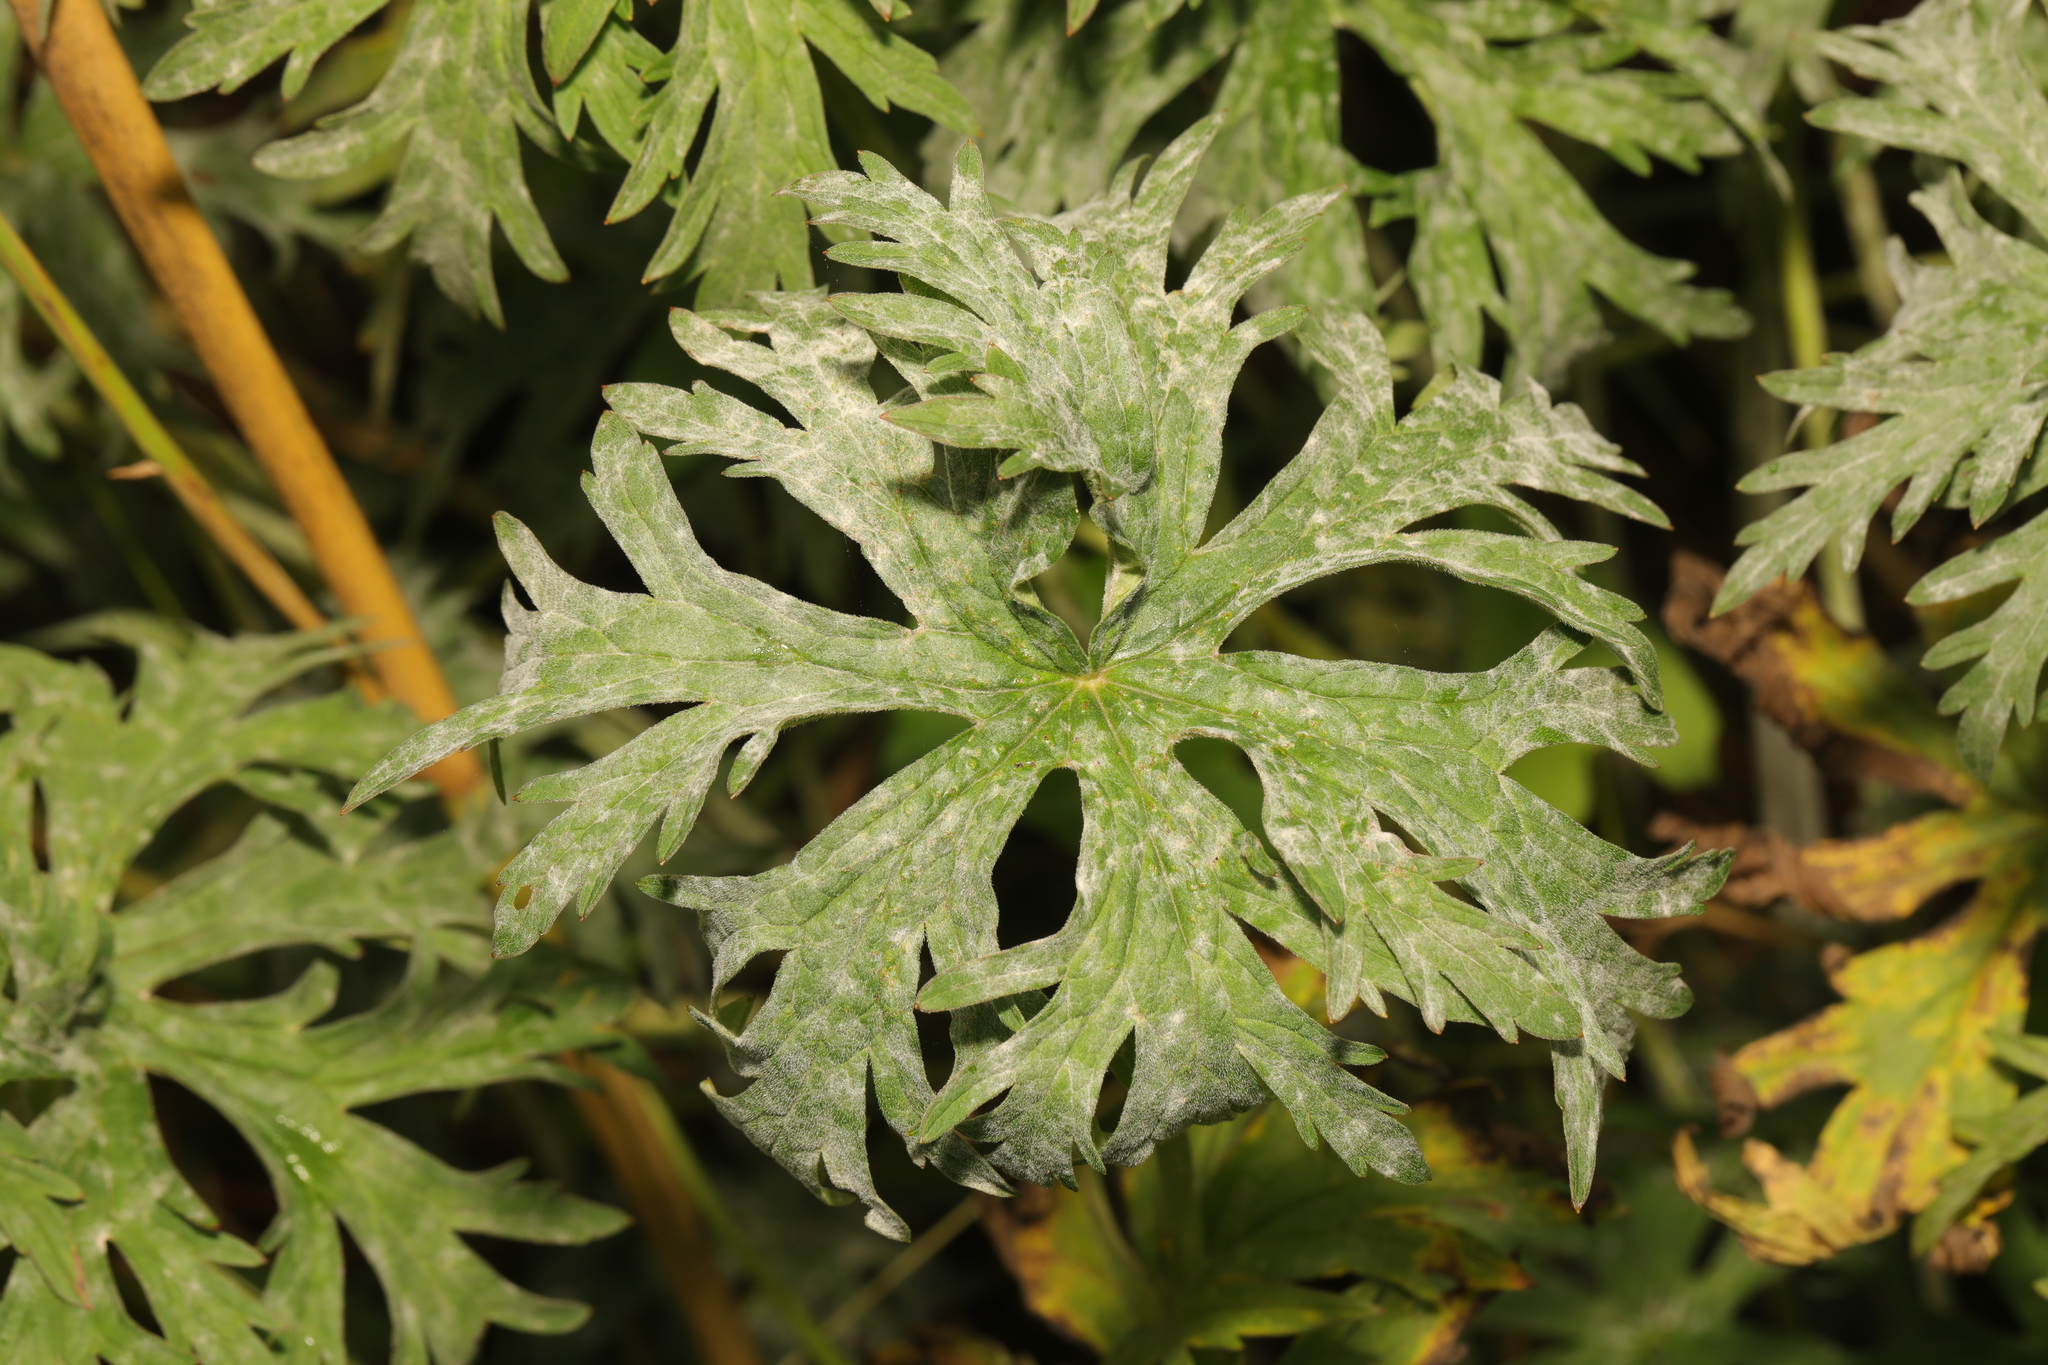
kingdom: Plantae
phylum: Tracheophyta
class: Magnoliopsida
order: Geraniales
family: Geraniaceae
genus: Geranium
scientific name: Geranium pratense
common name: Meadow crane's-bill
